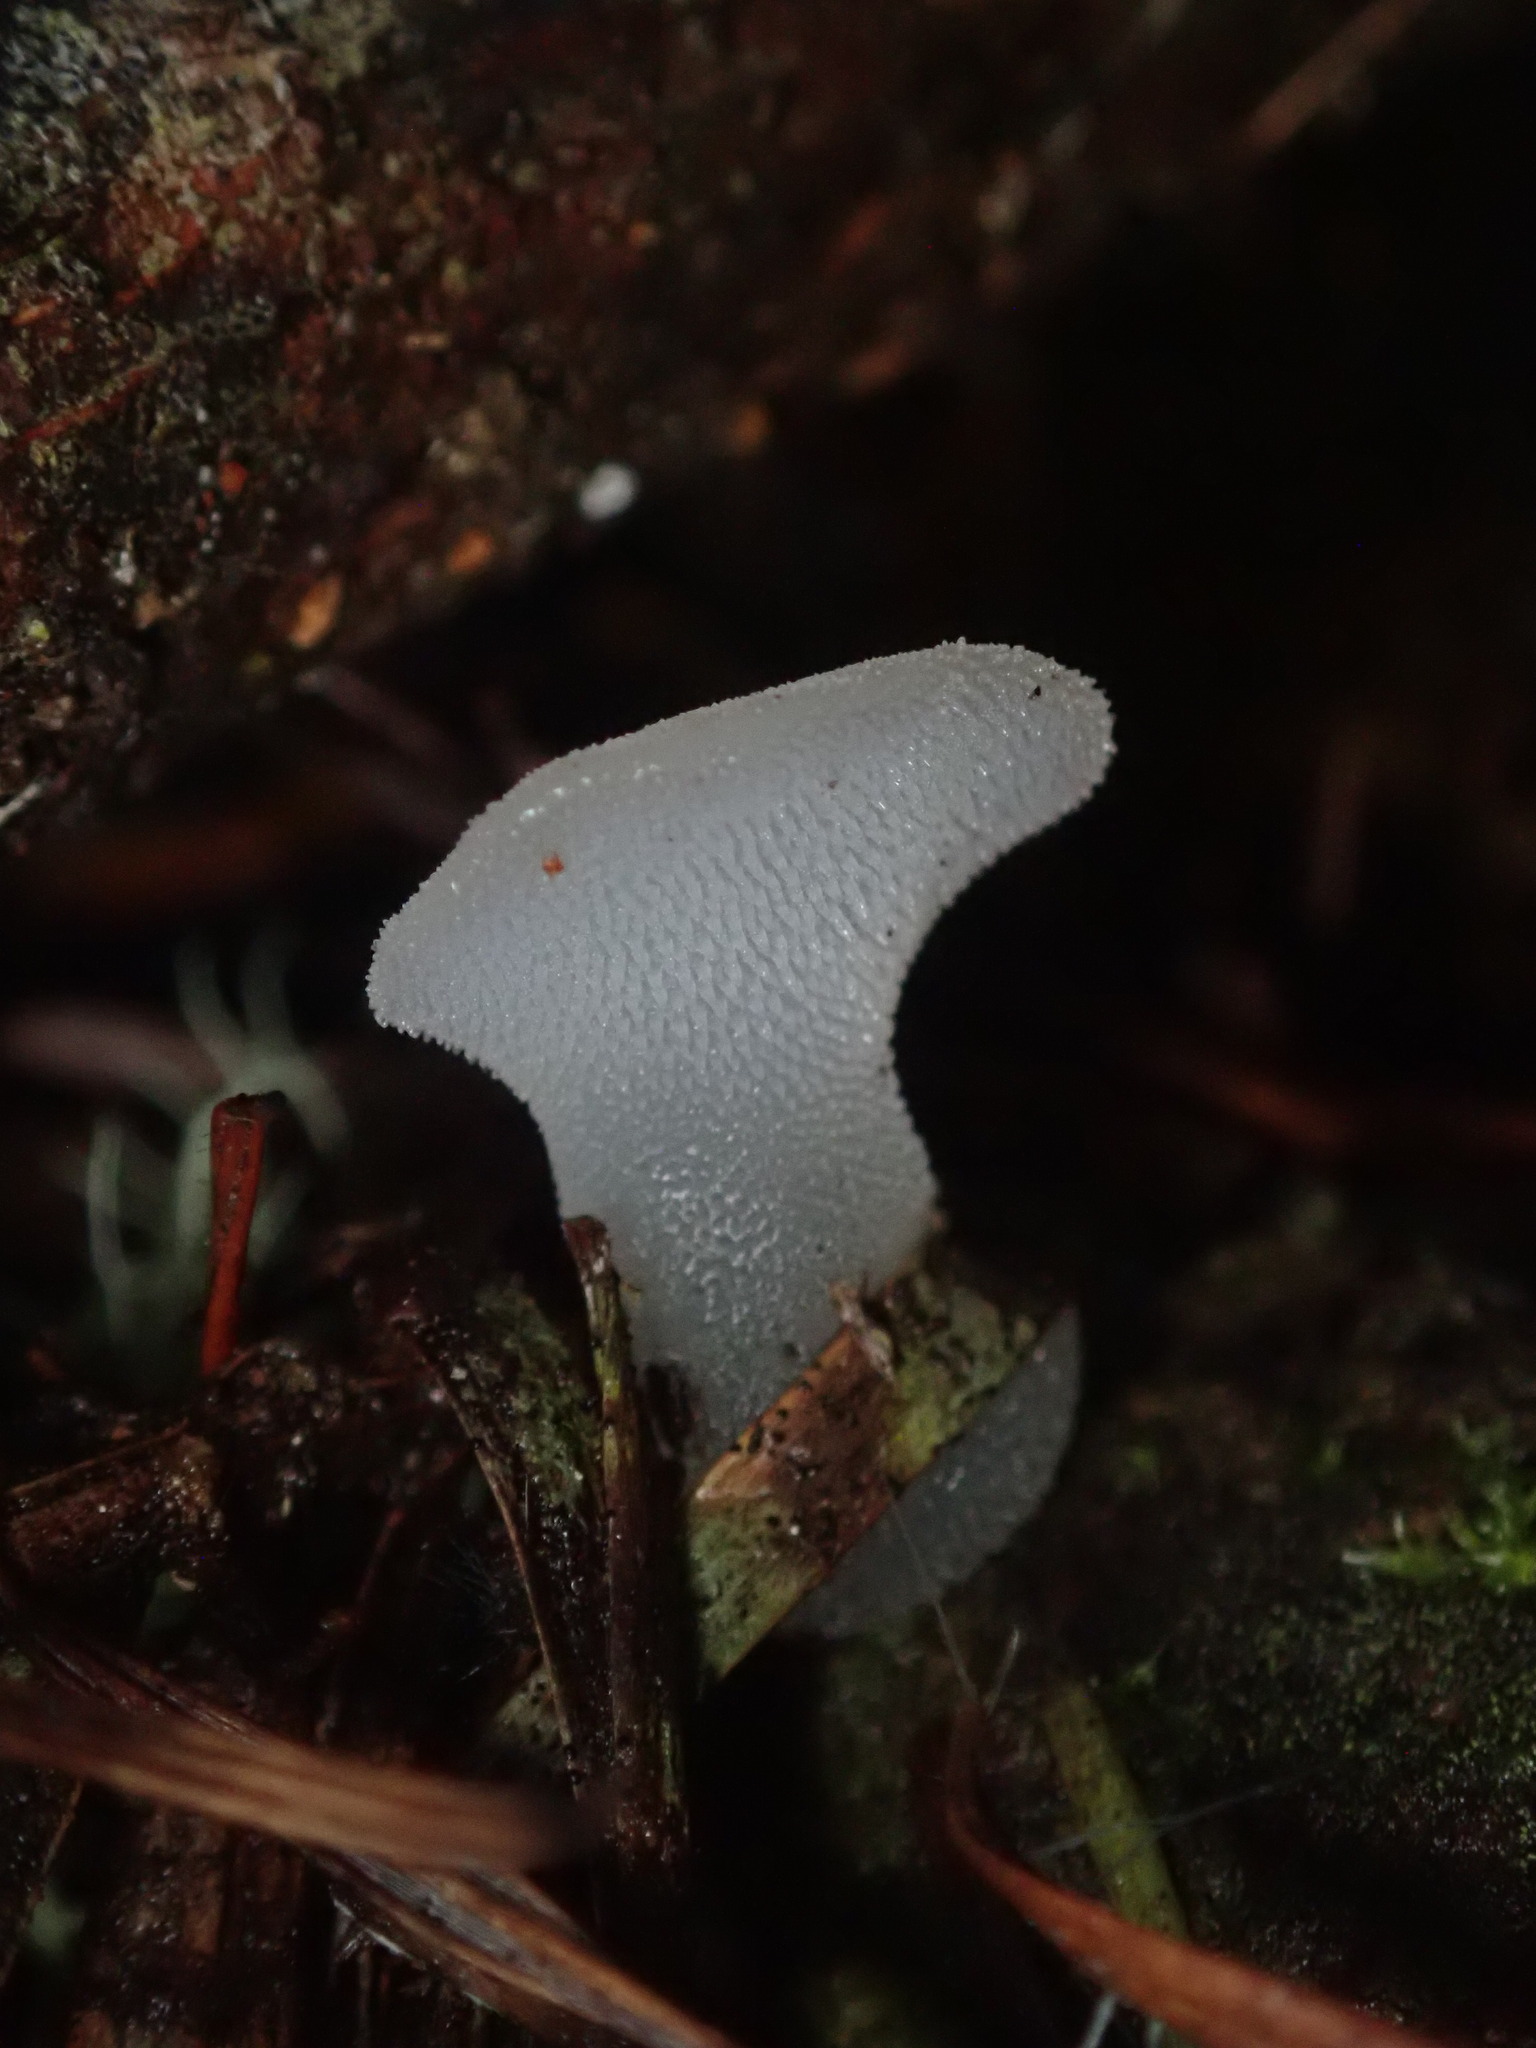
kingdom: Fungi
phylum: Basidiomycota
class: Agaricomycetes
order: Auriculariales
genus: Pseudohydnum
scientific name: Pseudohydnum gelatinosum
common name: Jelly tongue
